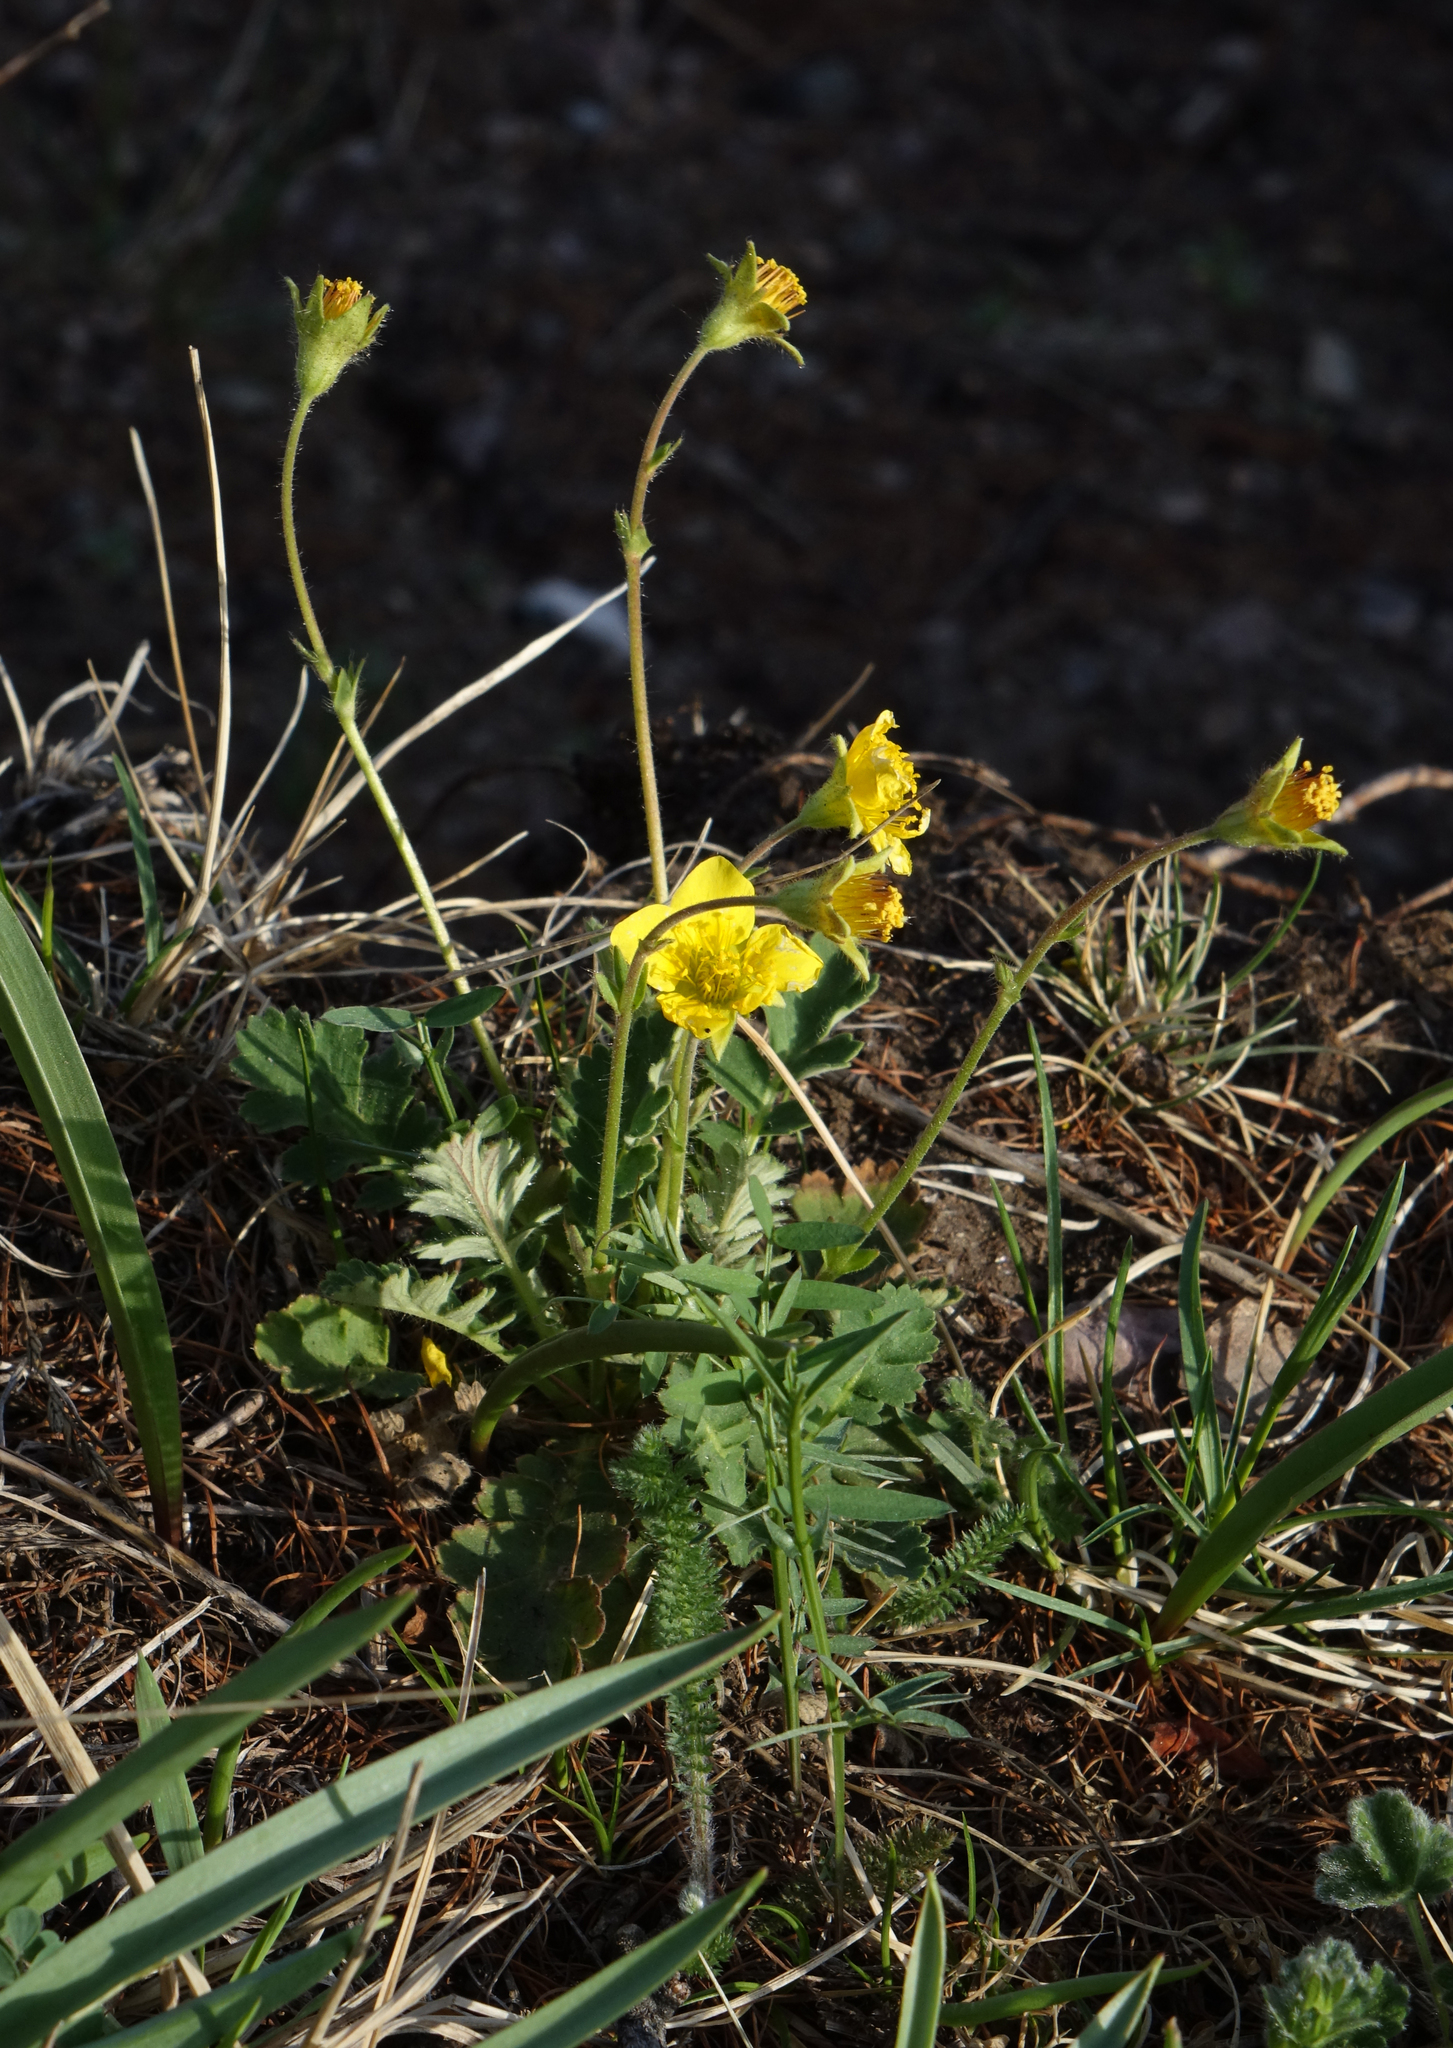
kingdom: Plantae
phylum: Tracheophyta
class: Magnoliopsida
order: Rosales
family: Rosaceae
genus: Geum
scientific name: Geum geoides
